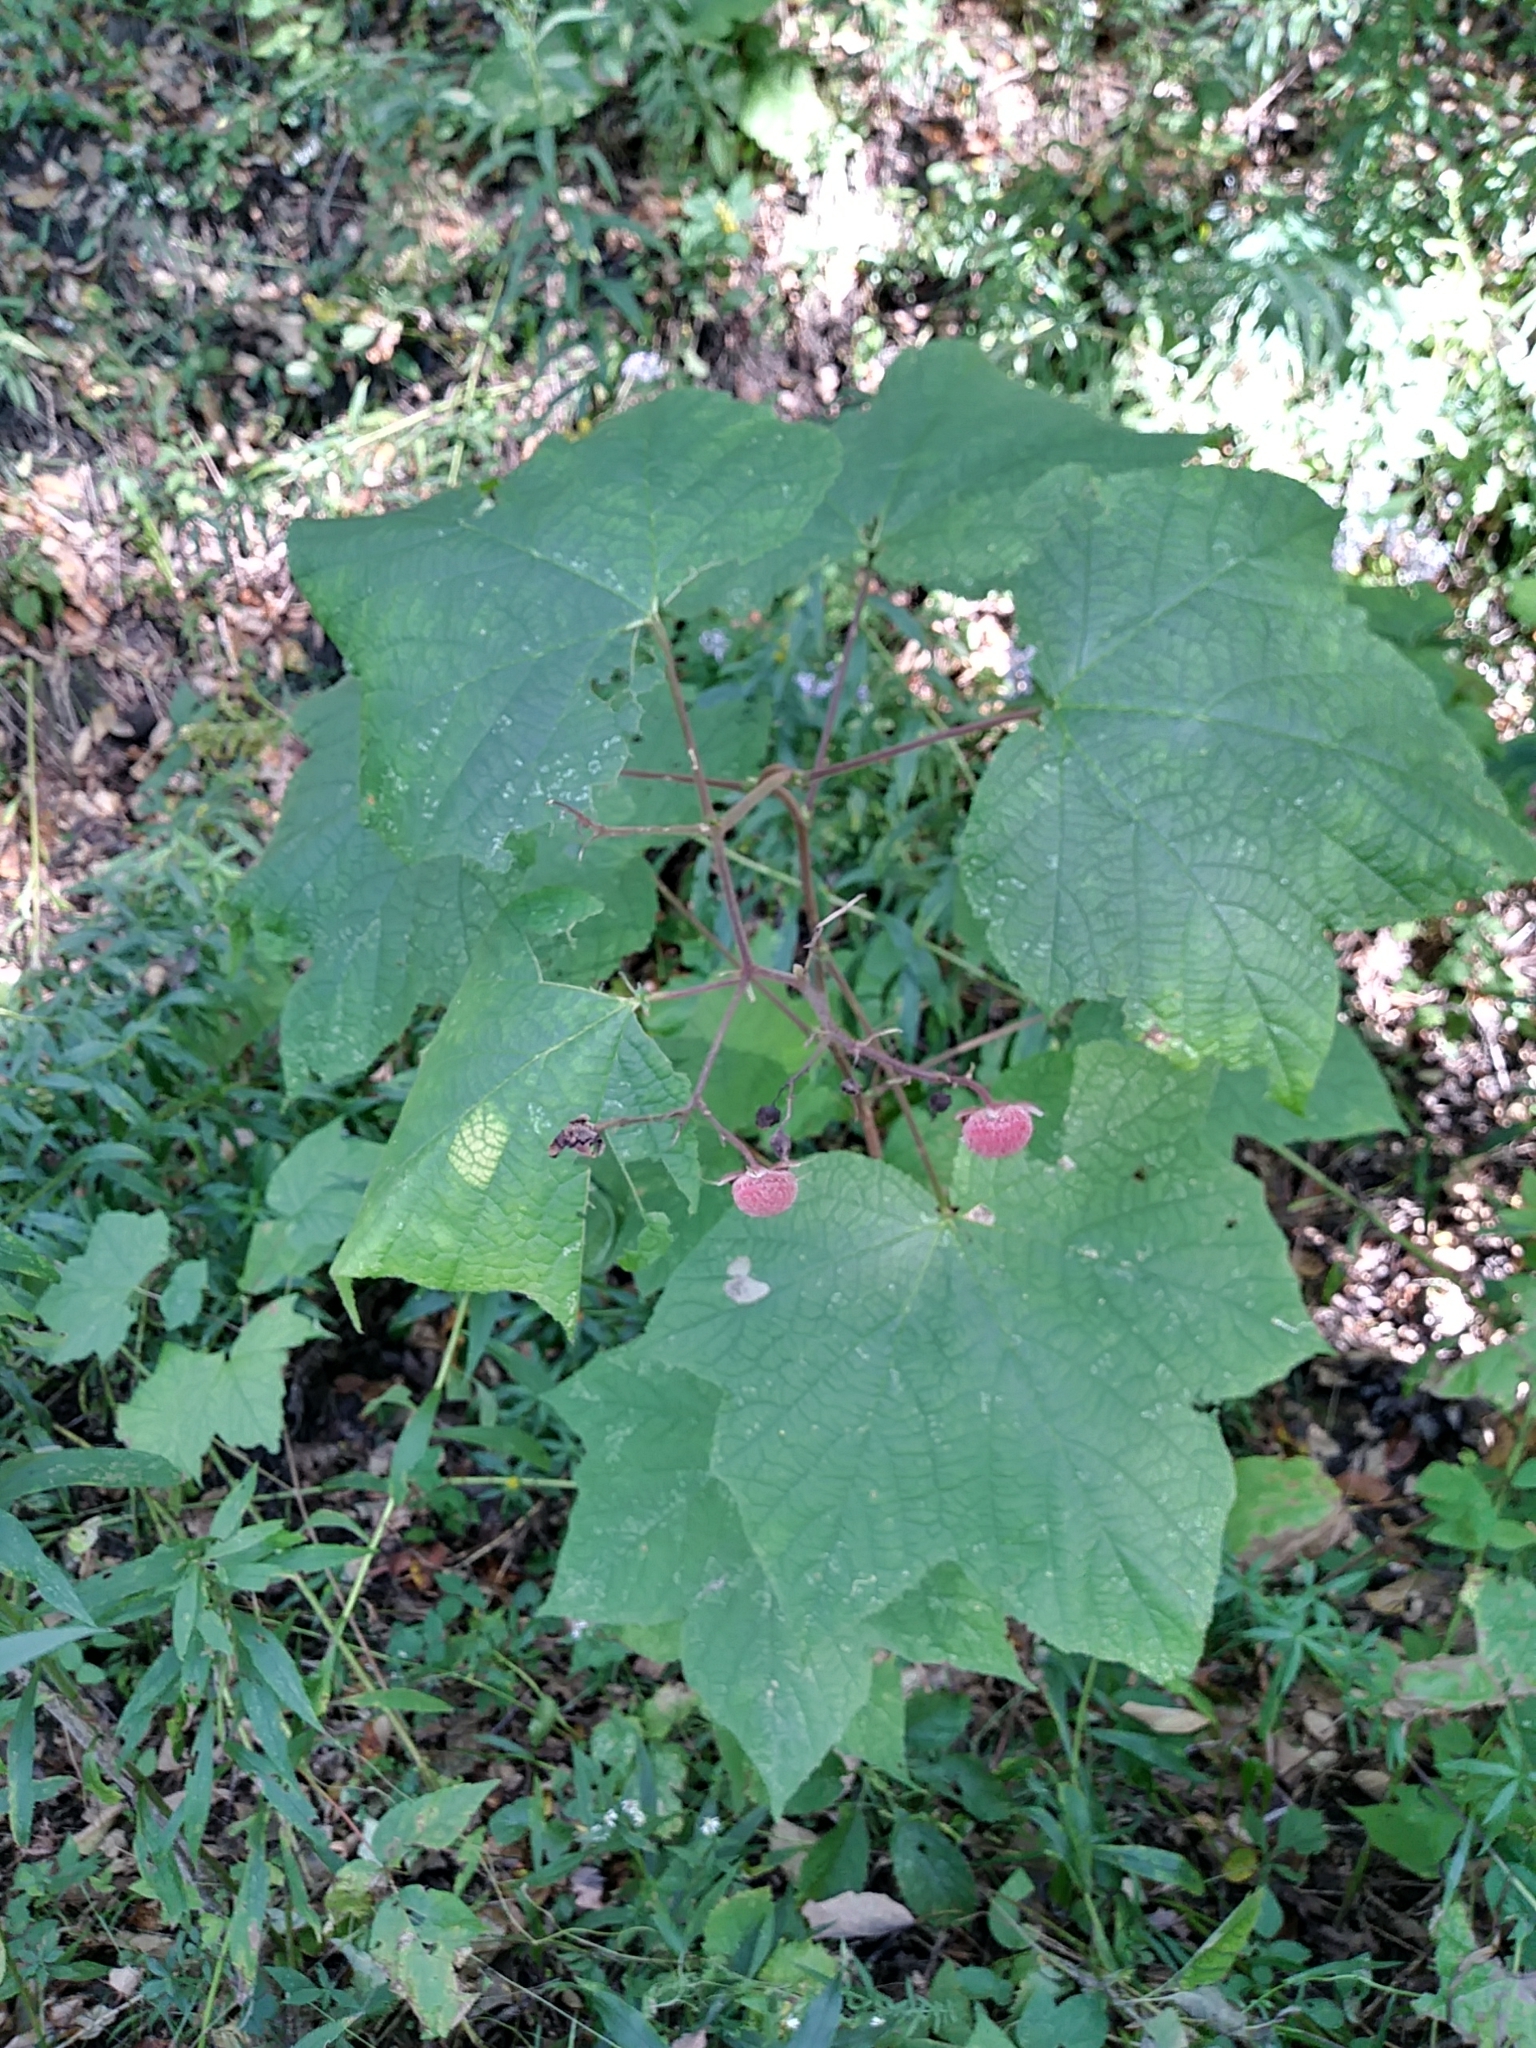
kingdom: Plantae
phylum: Tracheophyta
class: Magnoliopsida
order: Rosales
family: Rosaceae
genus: Rubus
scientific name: Rubus odoratus
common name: Purple-flowered raspberry
